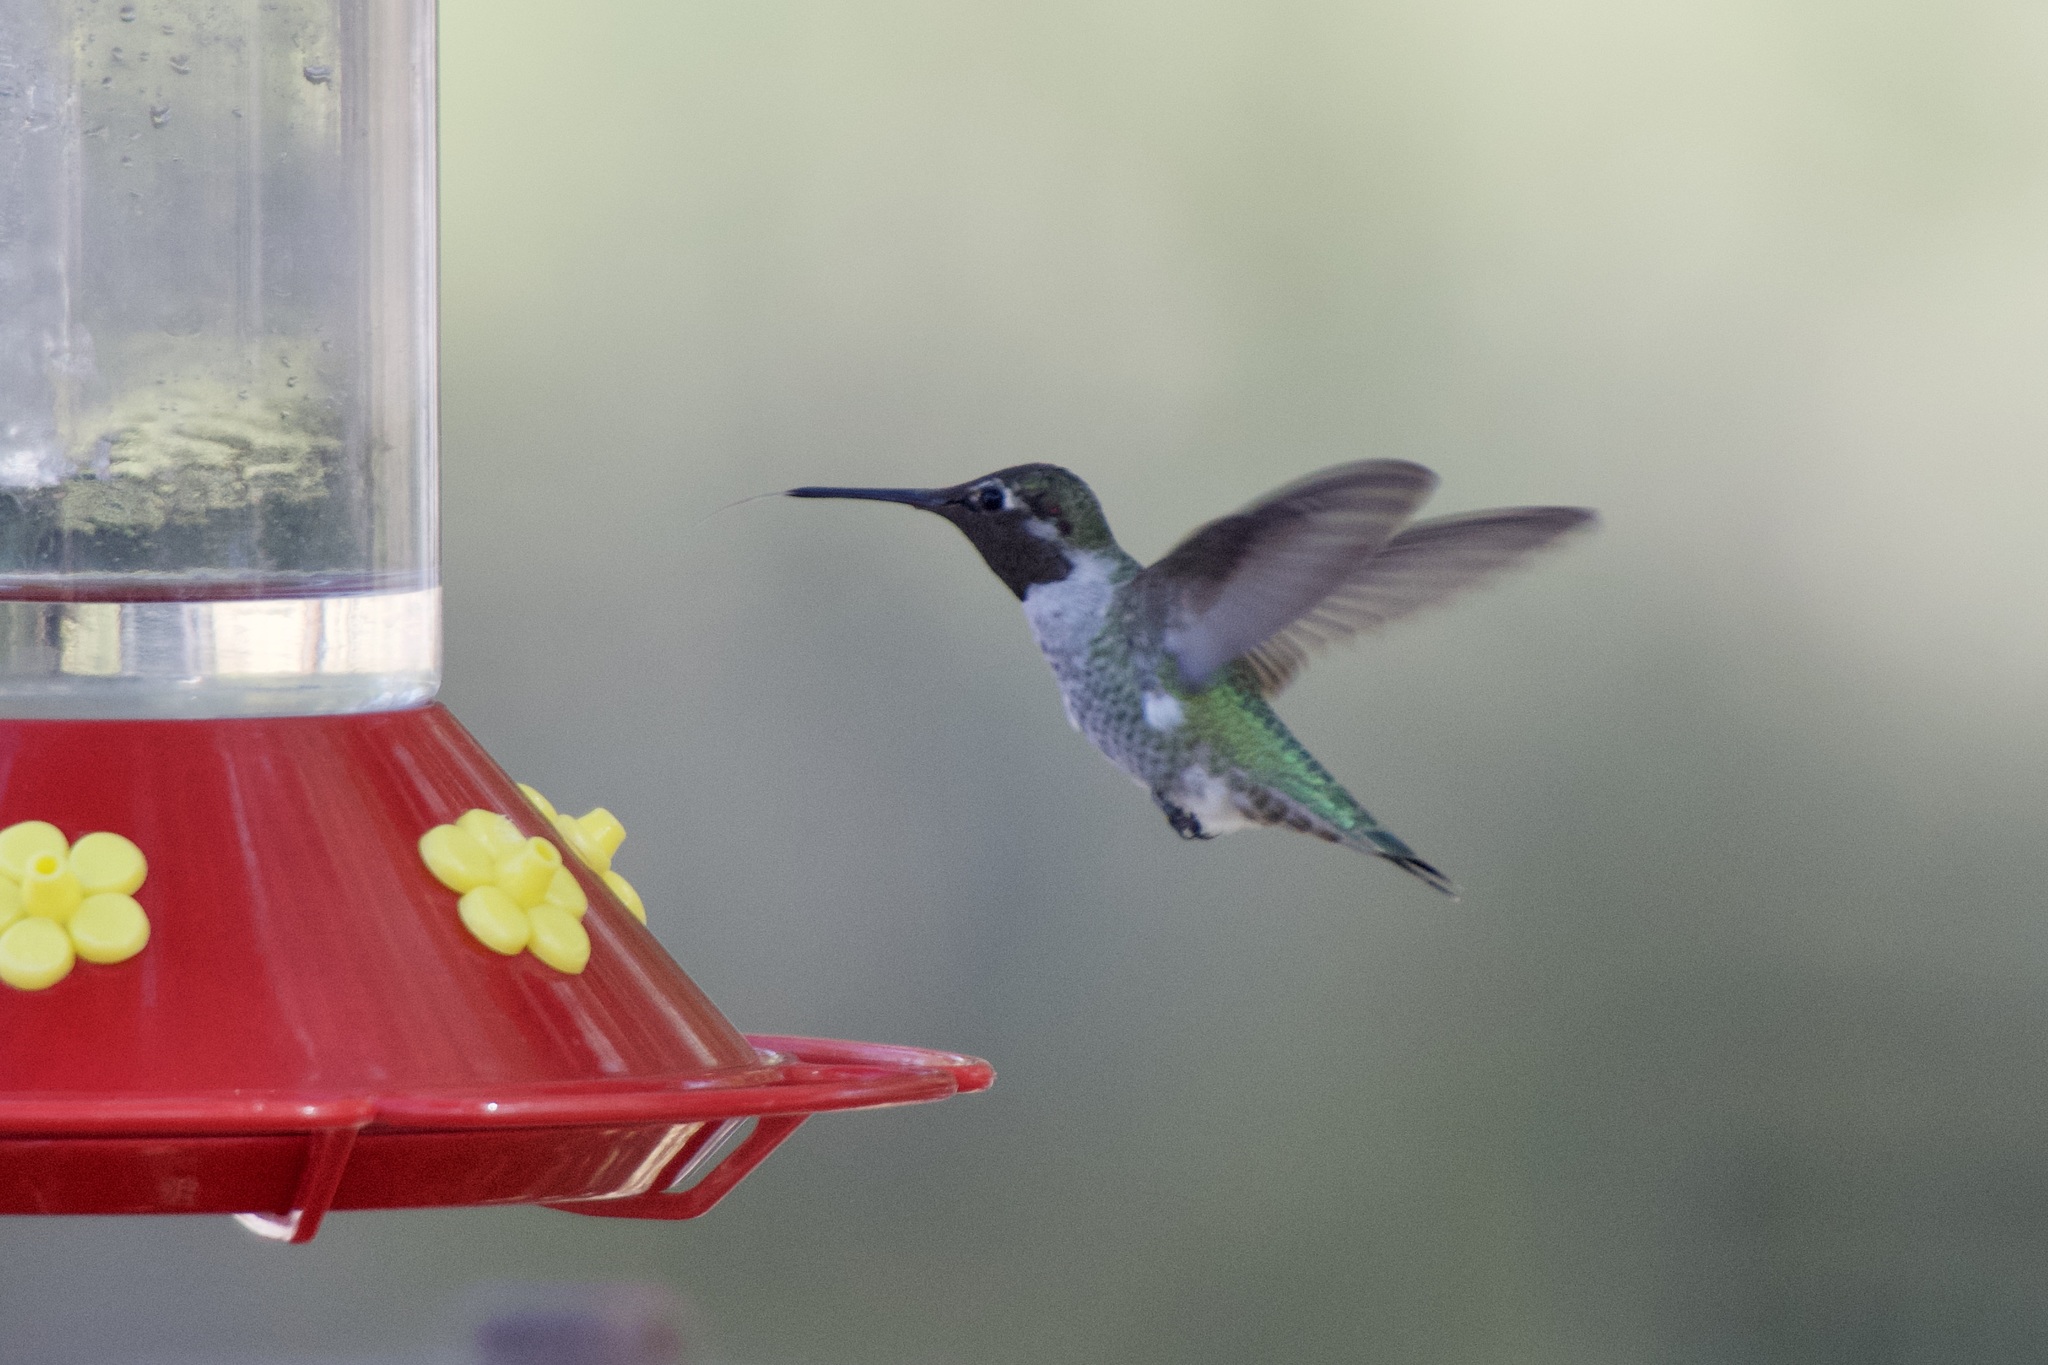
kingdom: Animalia
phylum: Chordata
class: Aves
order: Apodiformes
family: Trochilidae
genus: Calypte
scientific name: Calypte anna
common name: Anna's hummingbird
